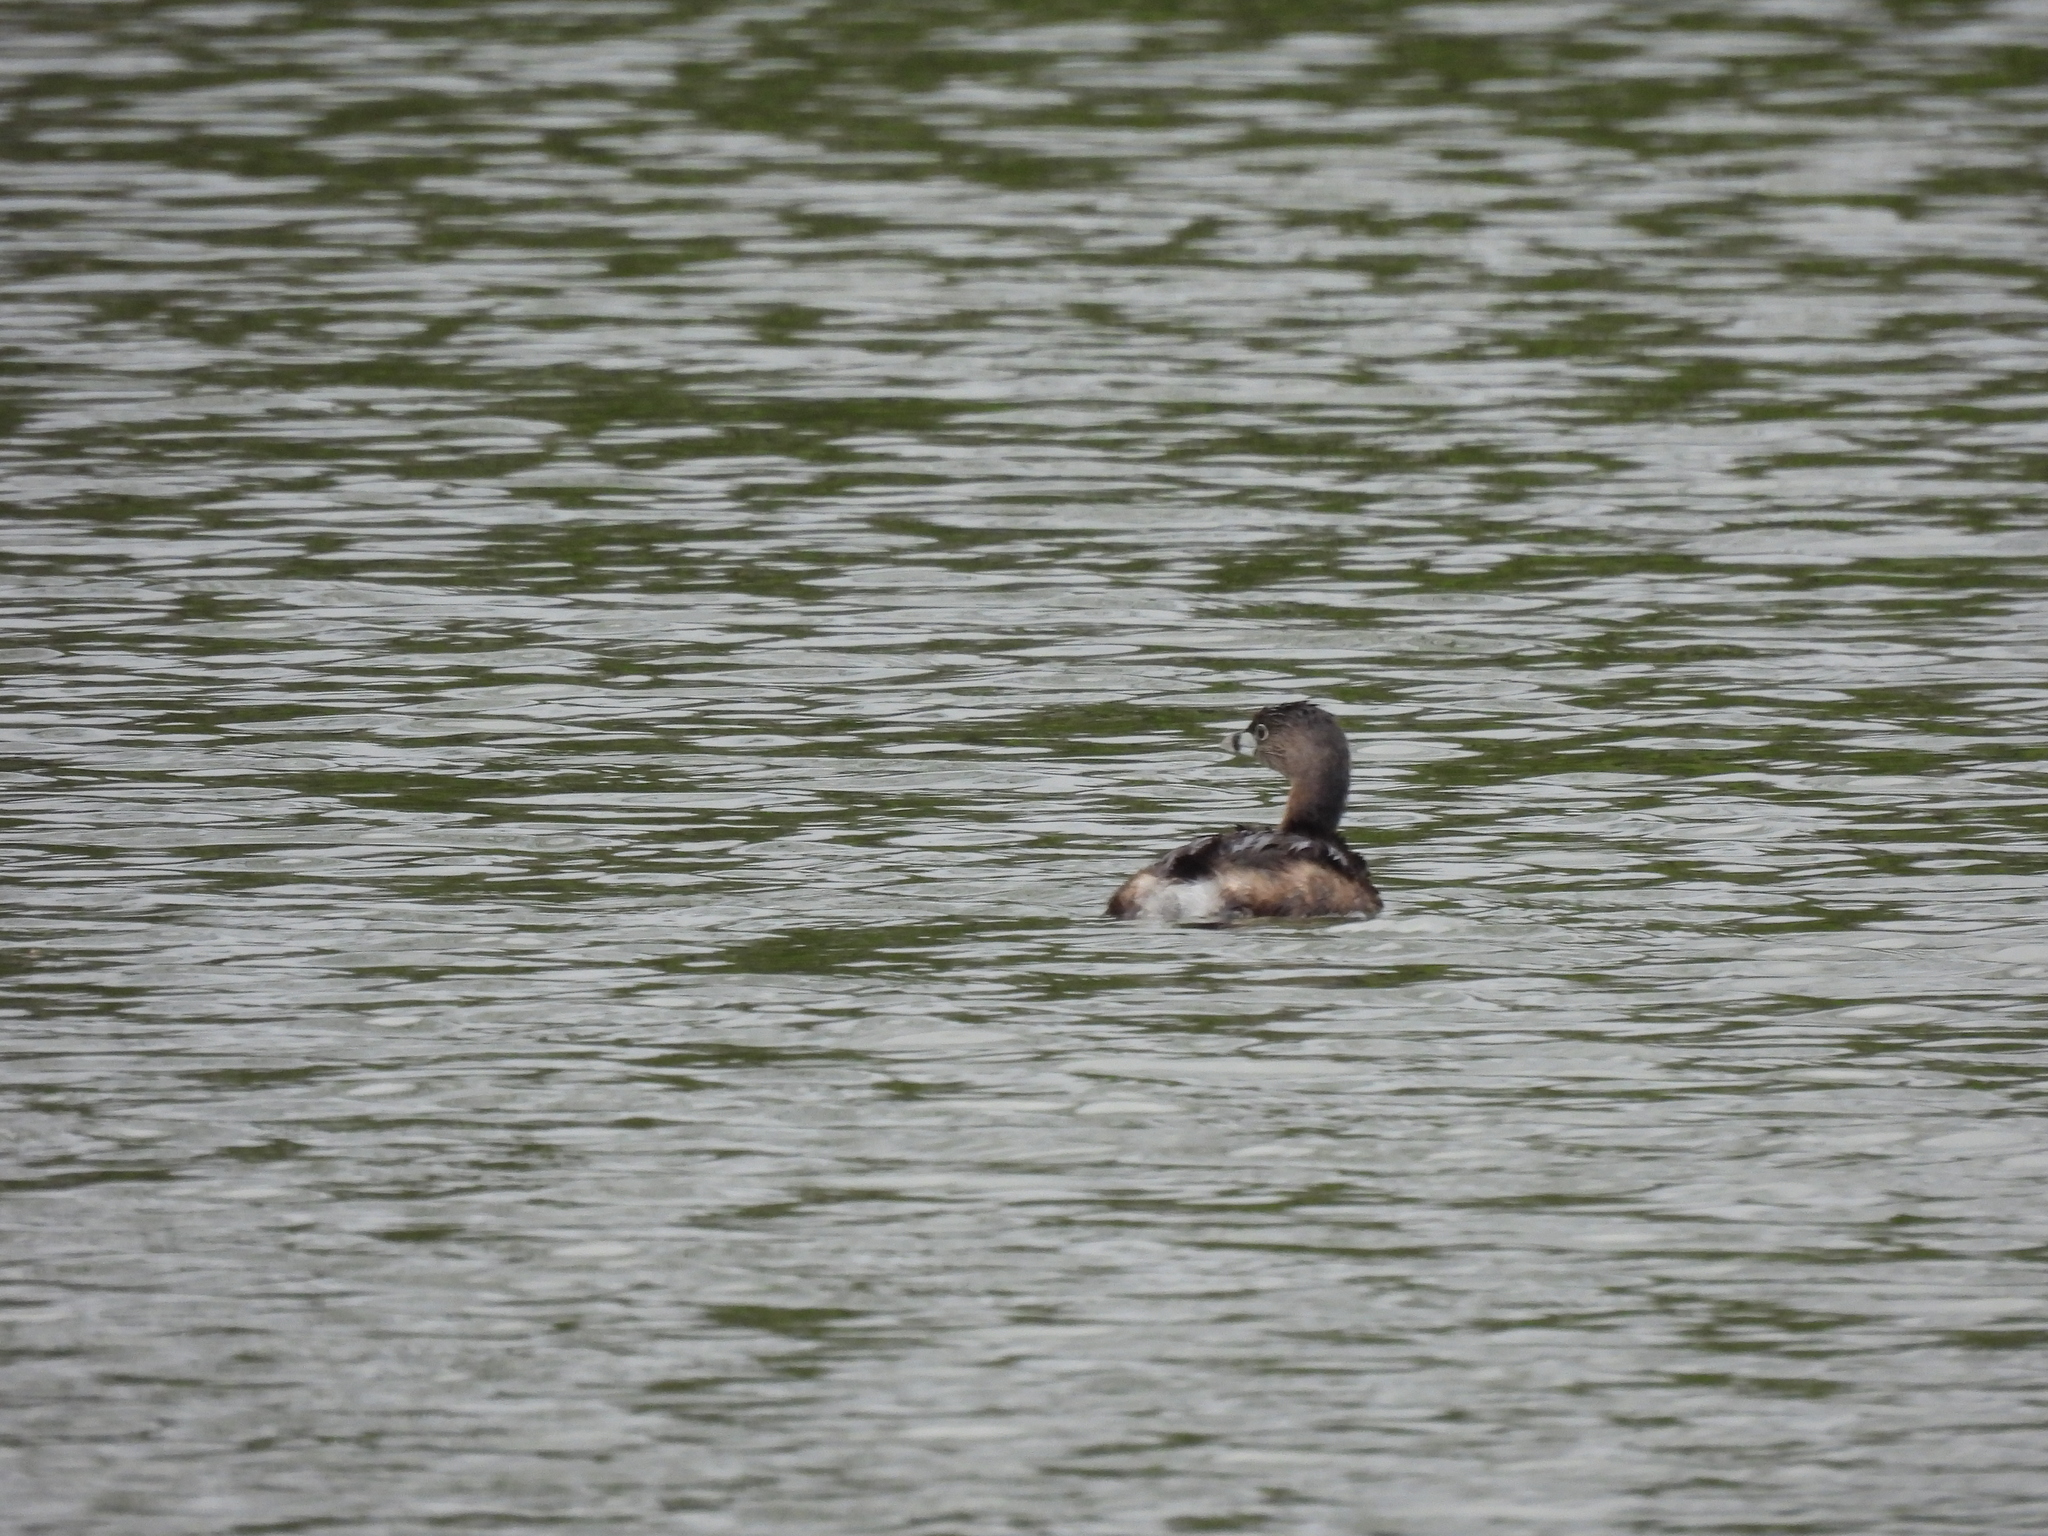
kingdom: Animalia
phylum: Chordata
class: Aves
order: Podicipediformes
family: Podicipedidae
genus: Podilymbus
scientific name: Podilymbus podiceps
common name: Pied-billed grebe
